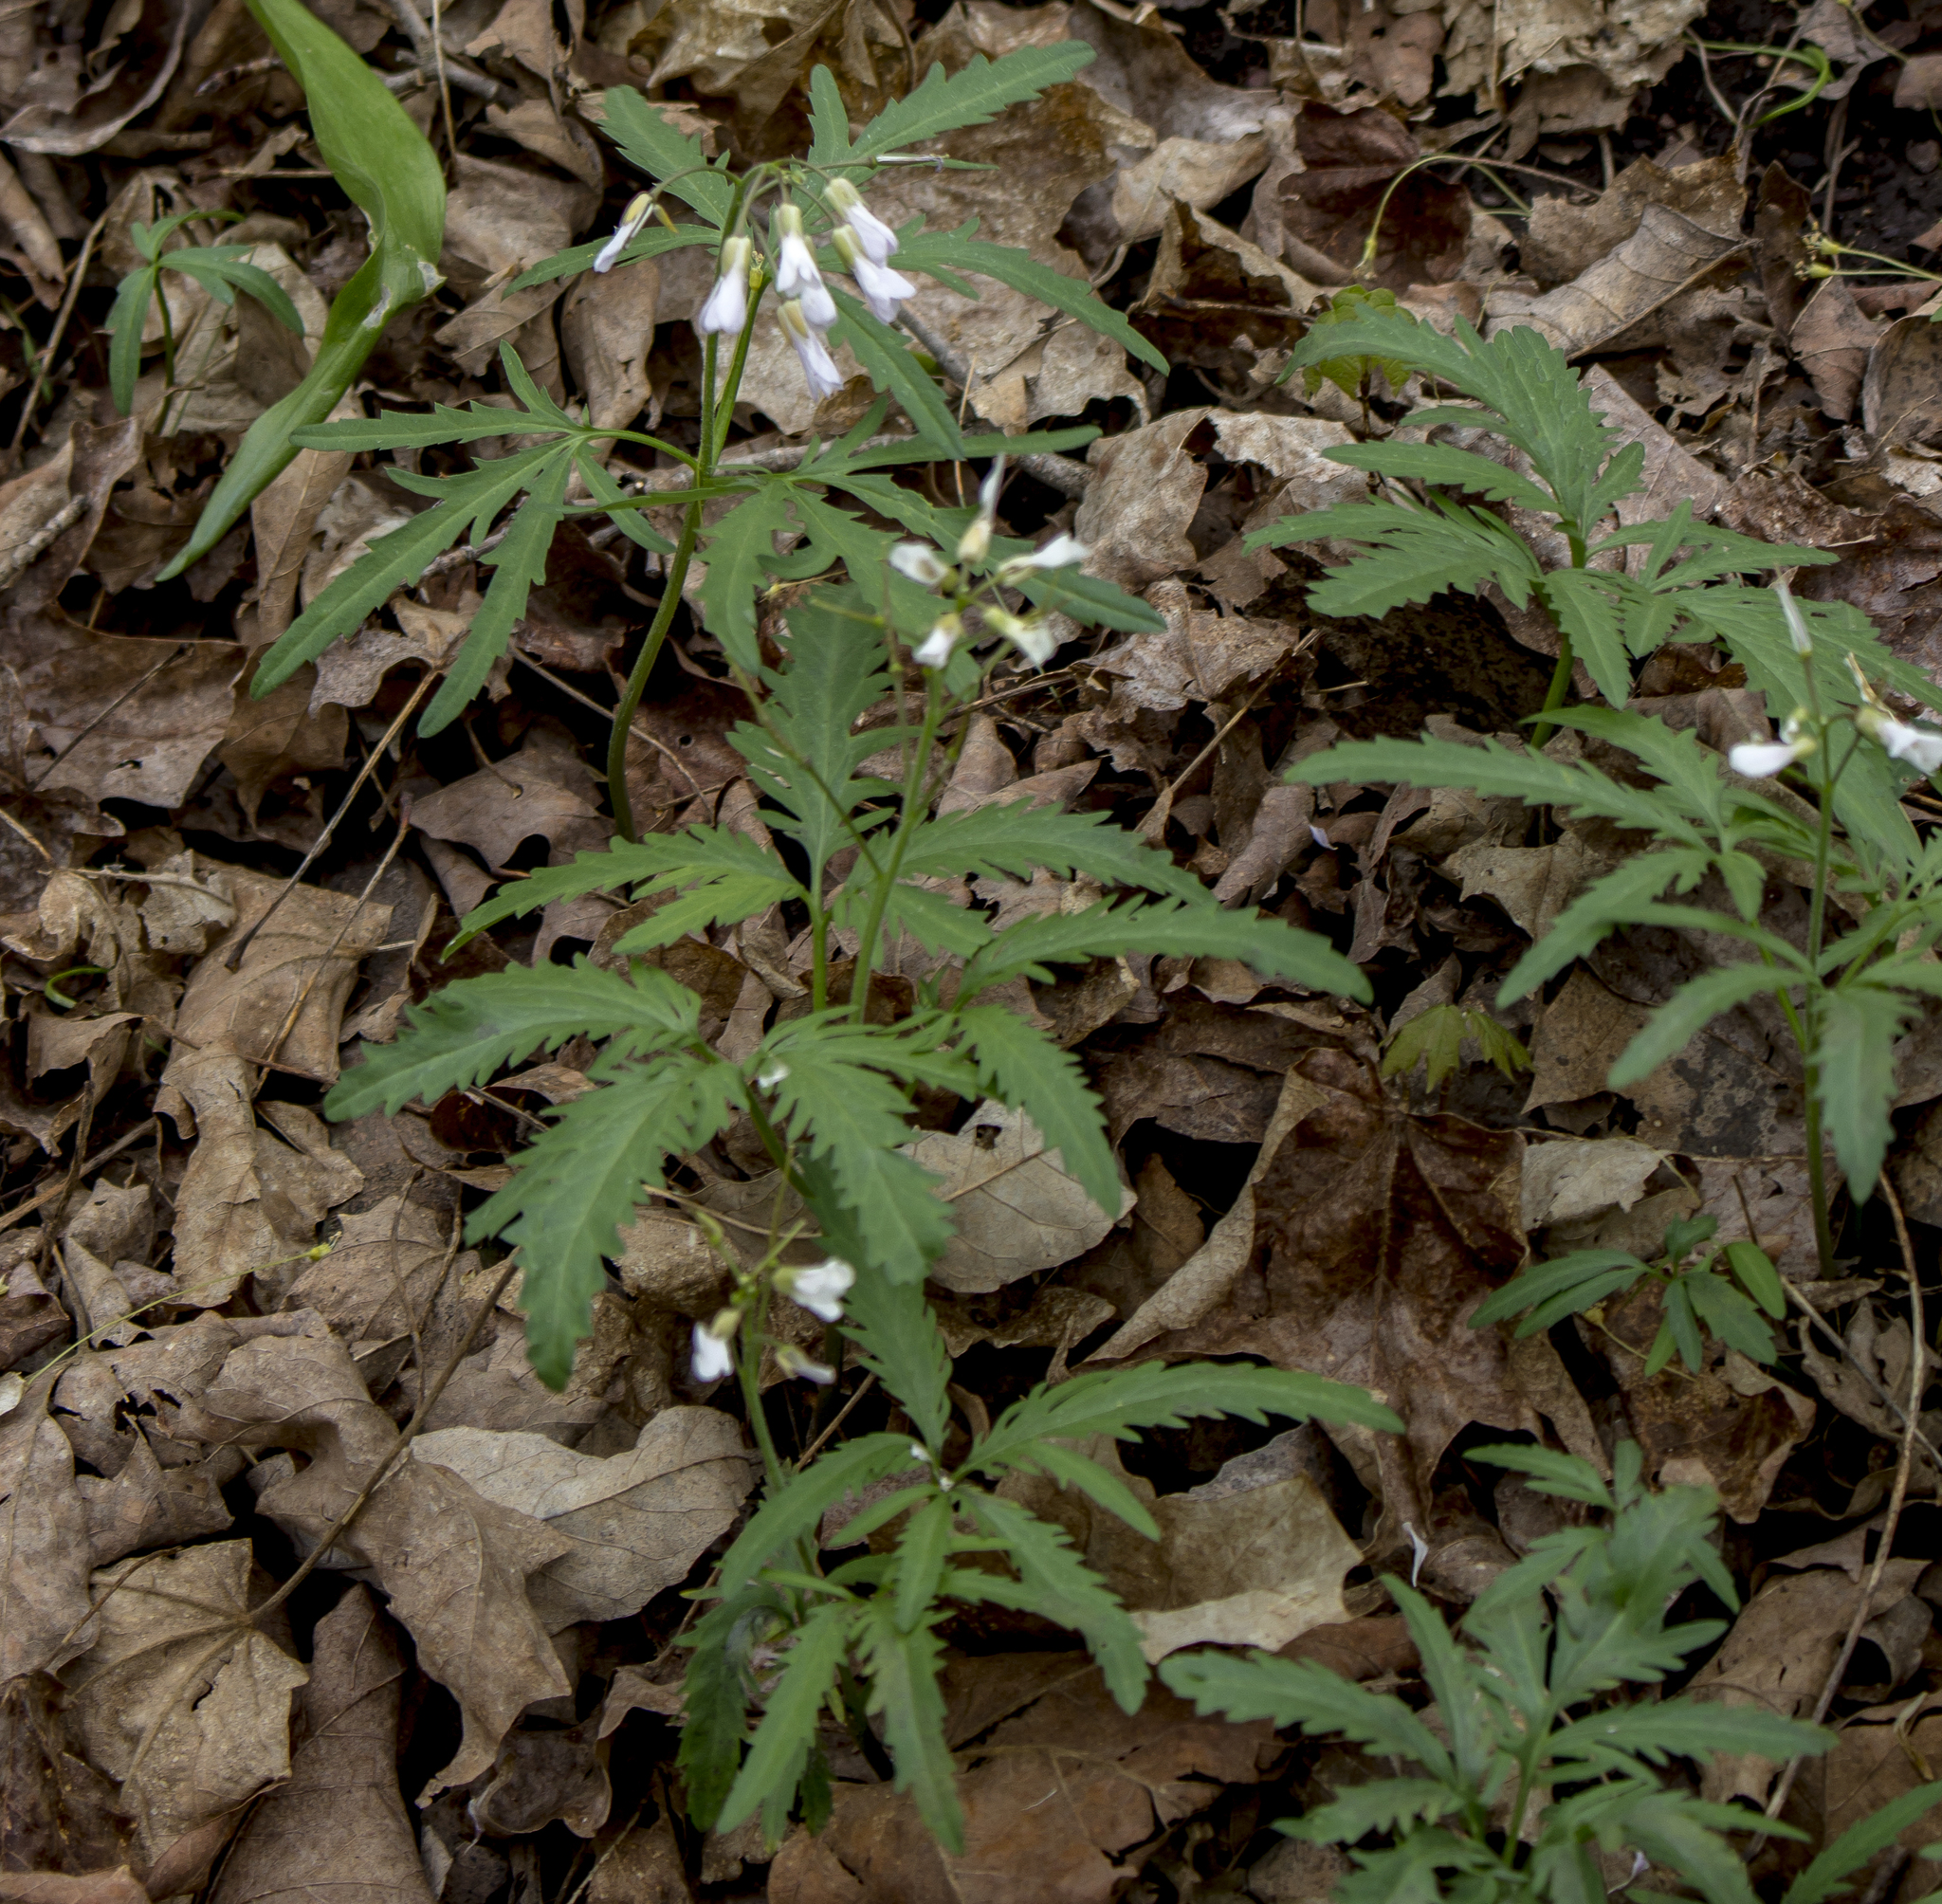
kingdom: Plantae
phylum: Tracheophyta
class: Magnoliopsida
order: Brassicales
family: Brassicaceae
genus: Cardamine
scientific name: Cardamine concatenata
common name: Cut-leaf toothcup
